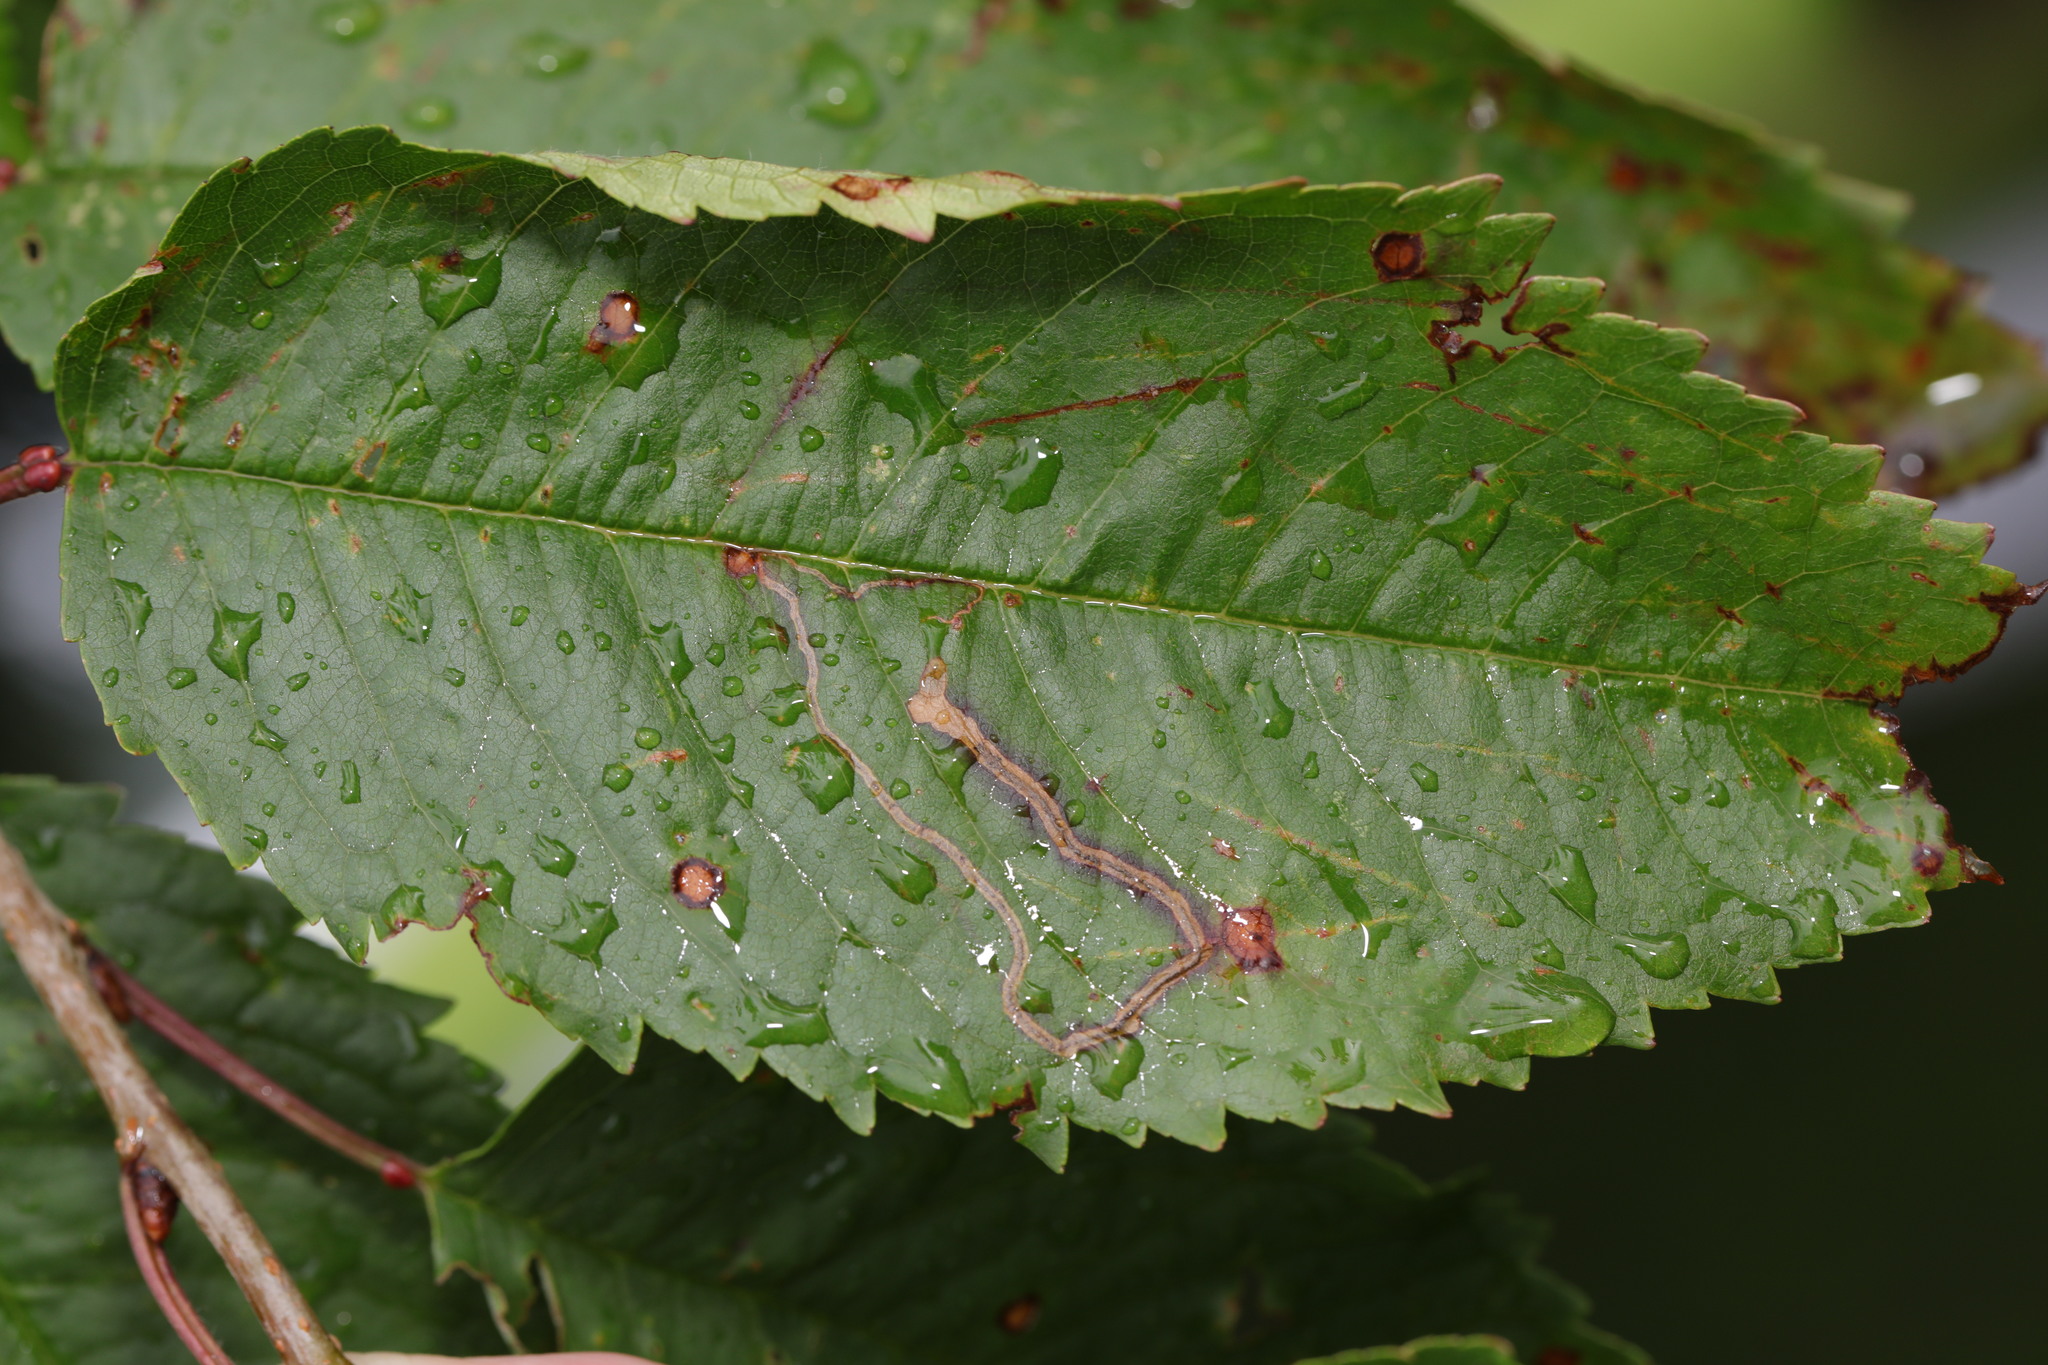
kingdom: Animalia
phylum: Arthropoda
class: Insecta
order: Lepidoptera
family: Lyonetiidae
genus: Lyonetia
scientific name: Lyonetia clerkella
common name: Apple leaf miner
